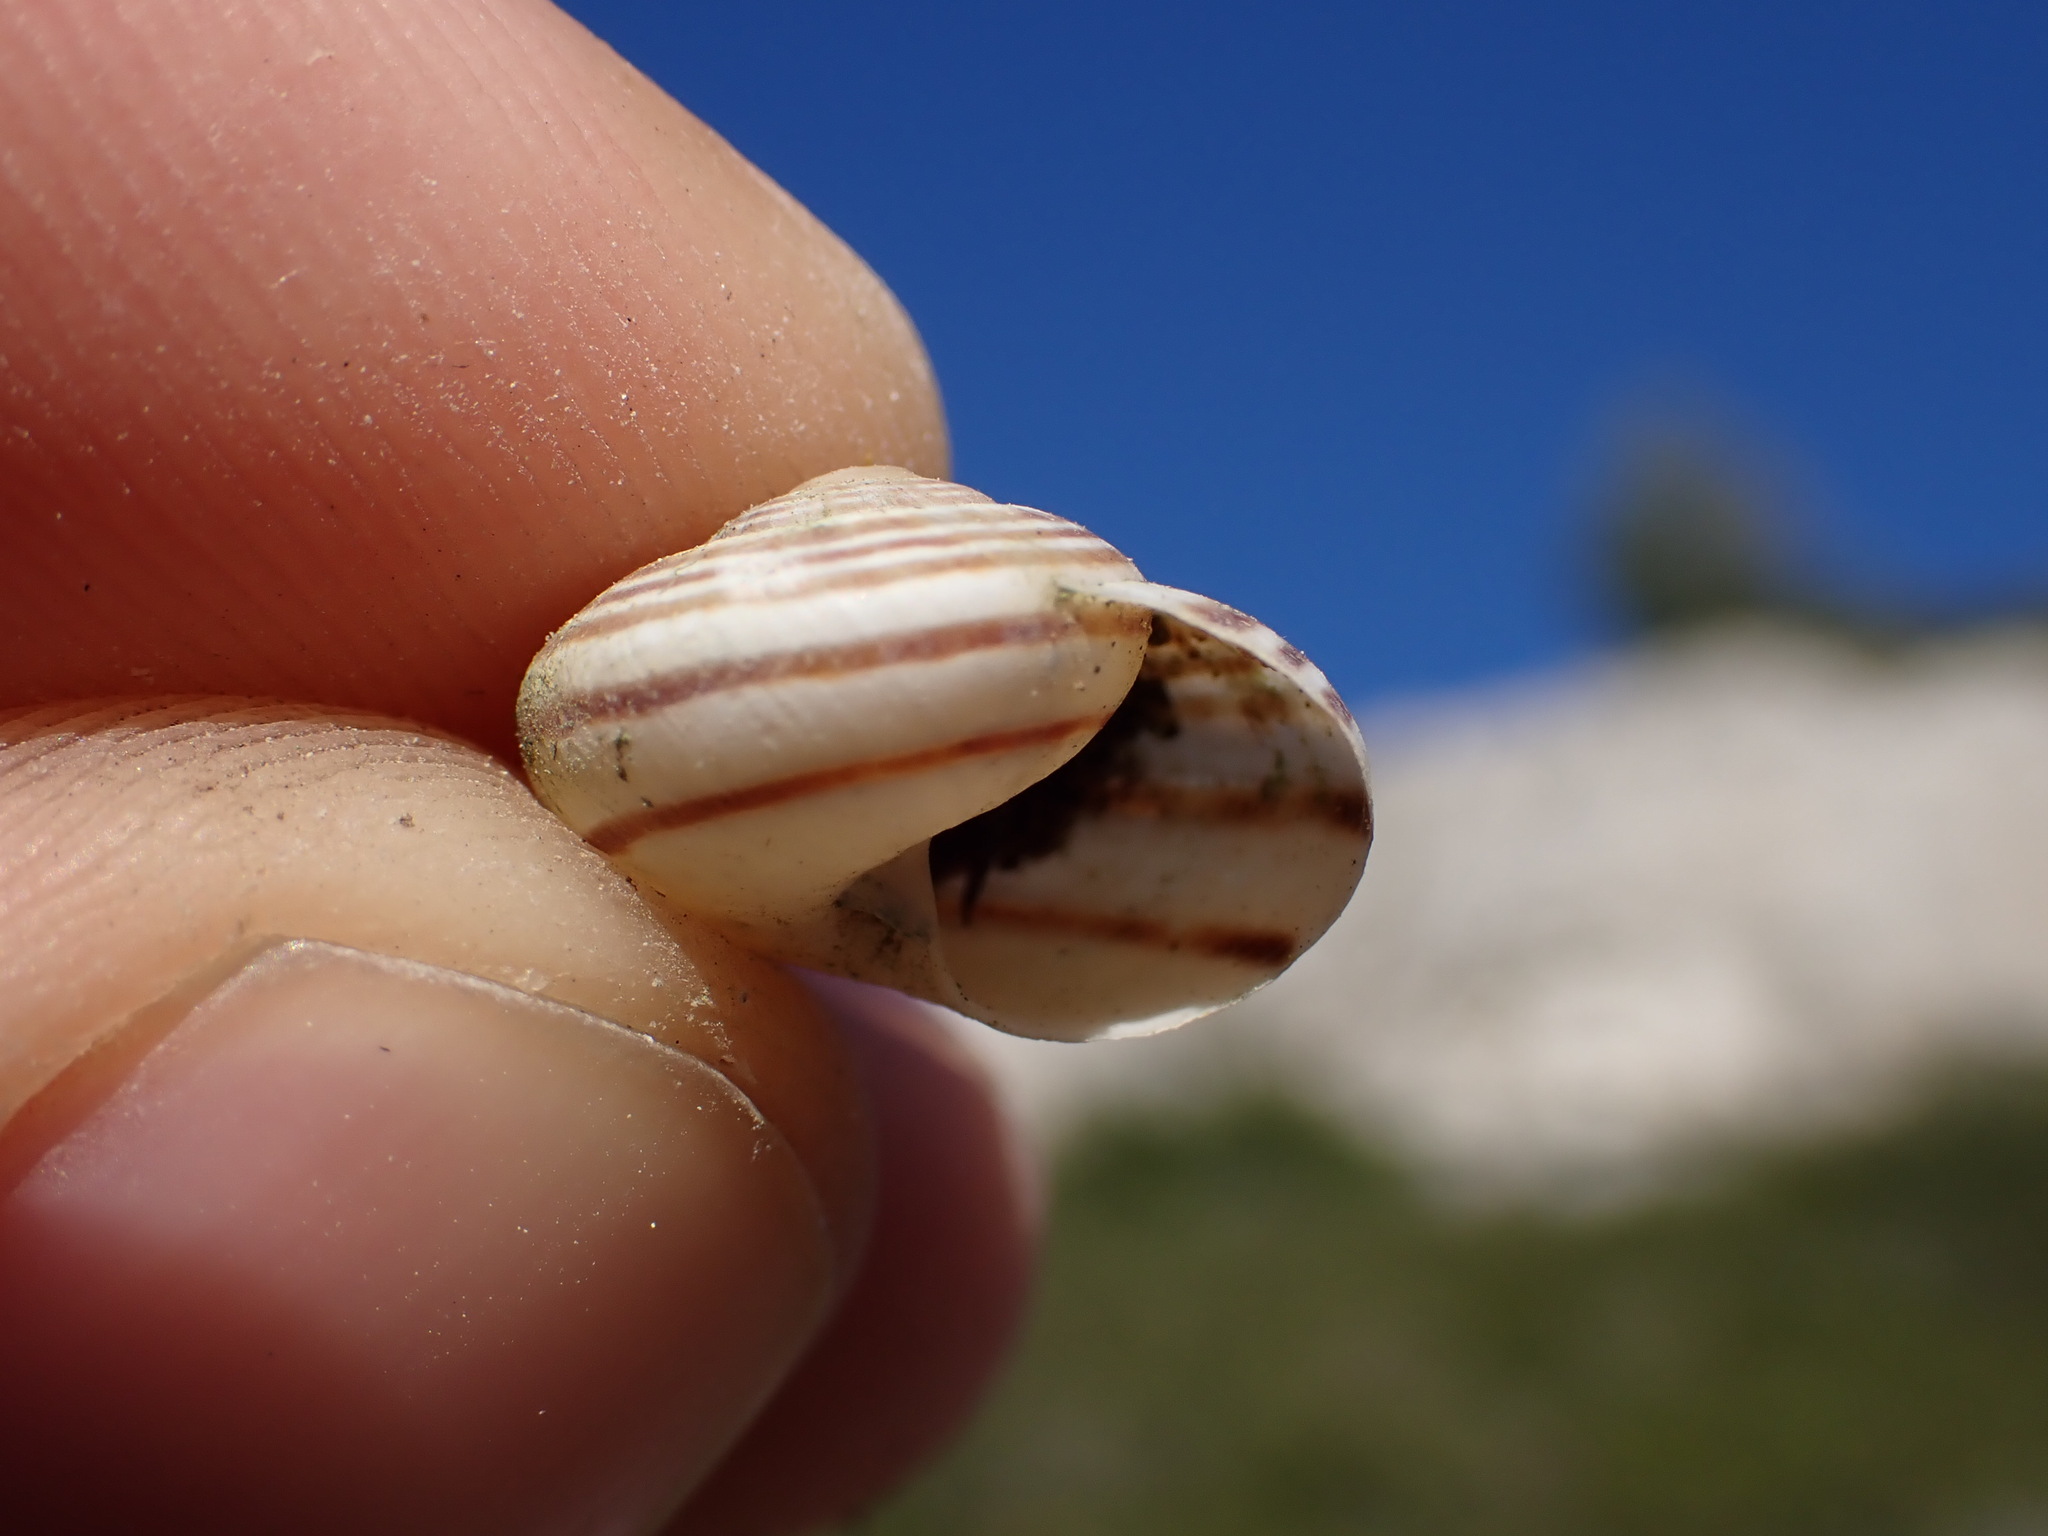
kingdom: Animalia
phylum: Mollusca
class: Gastropoda
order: Stylommatophora
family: Helicidae
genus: Pseudotachea
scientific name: Pseudotachea splendida
